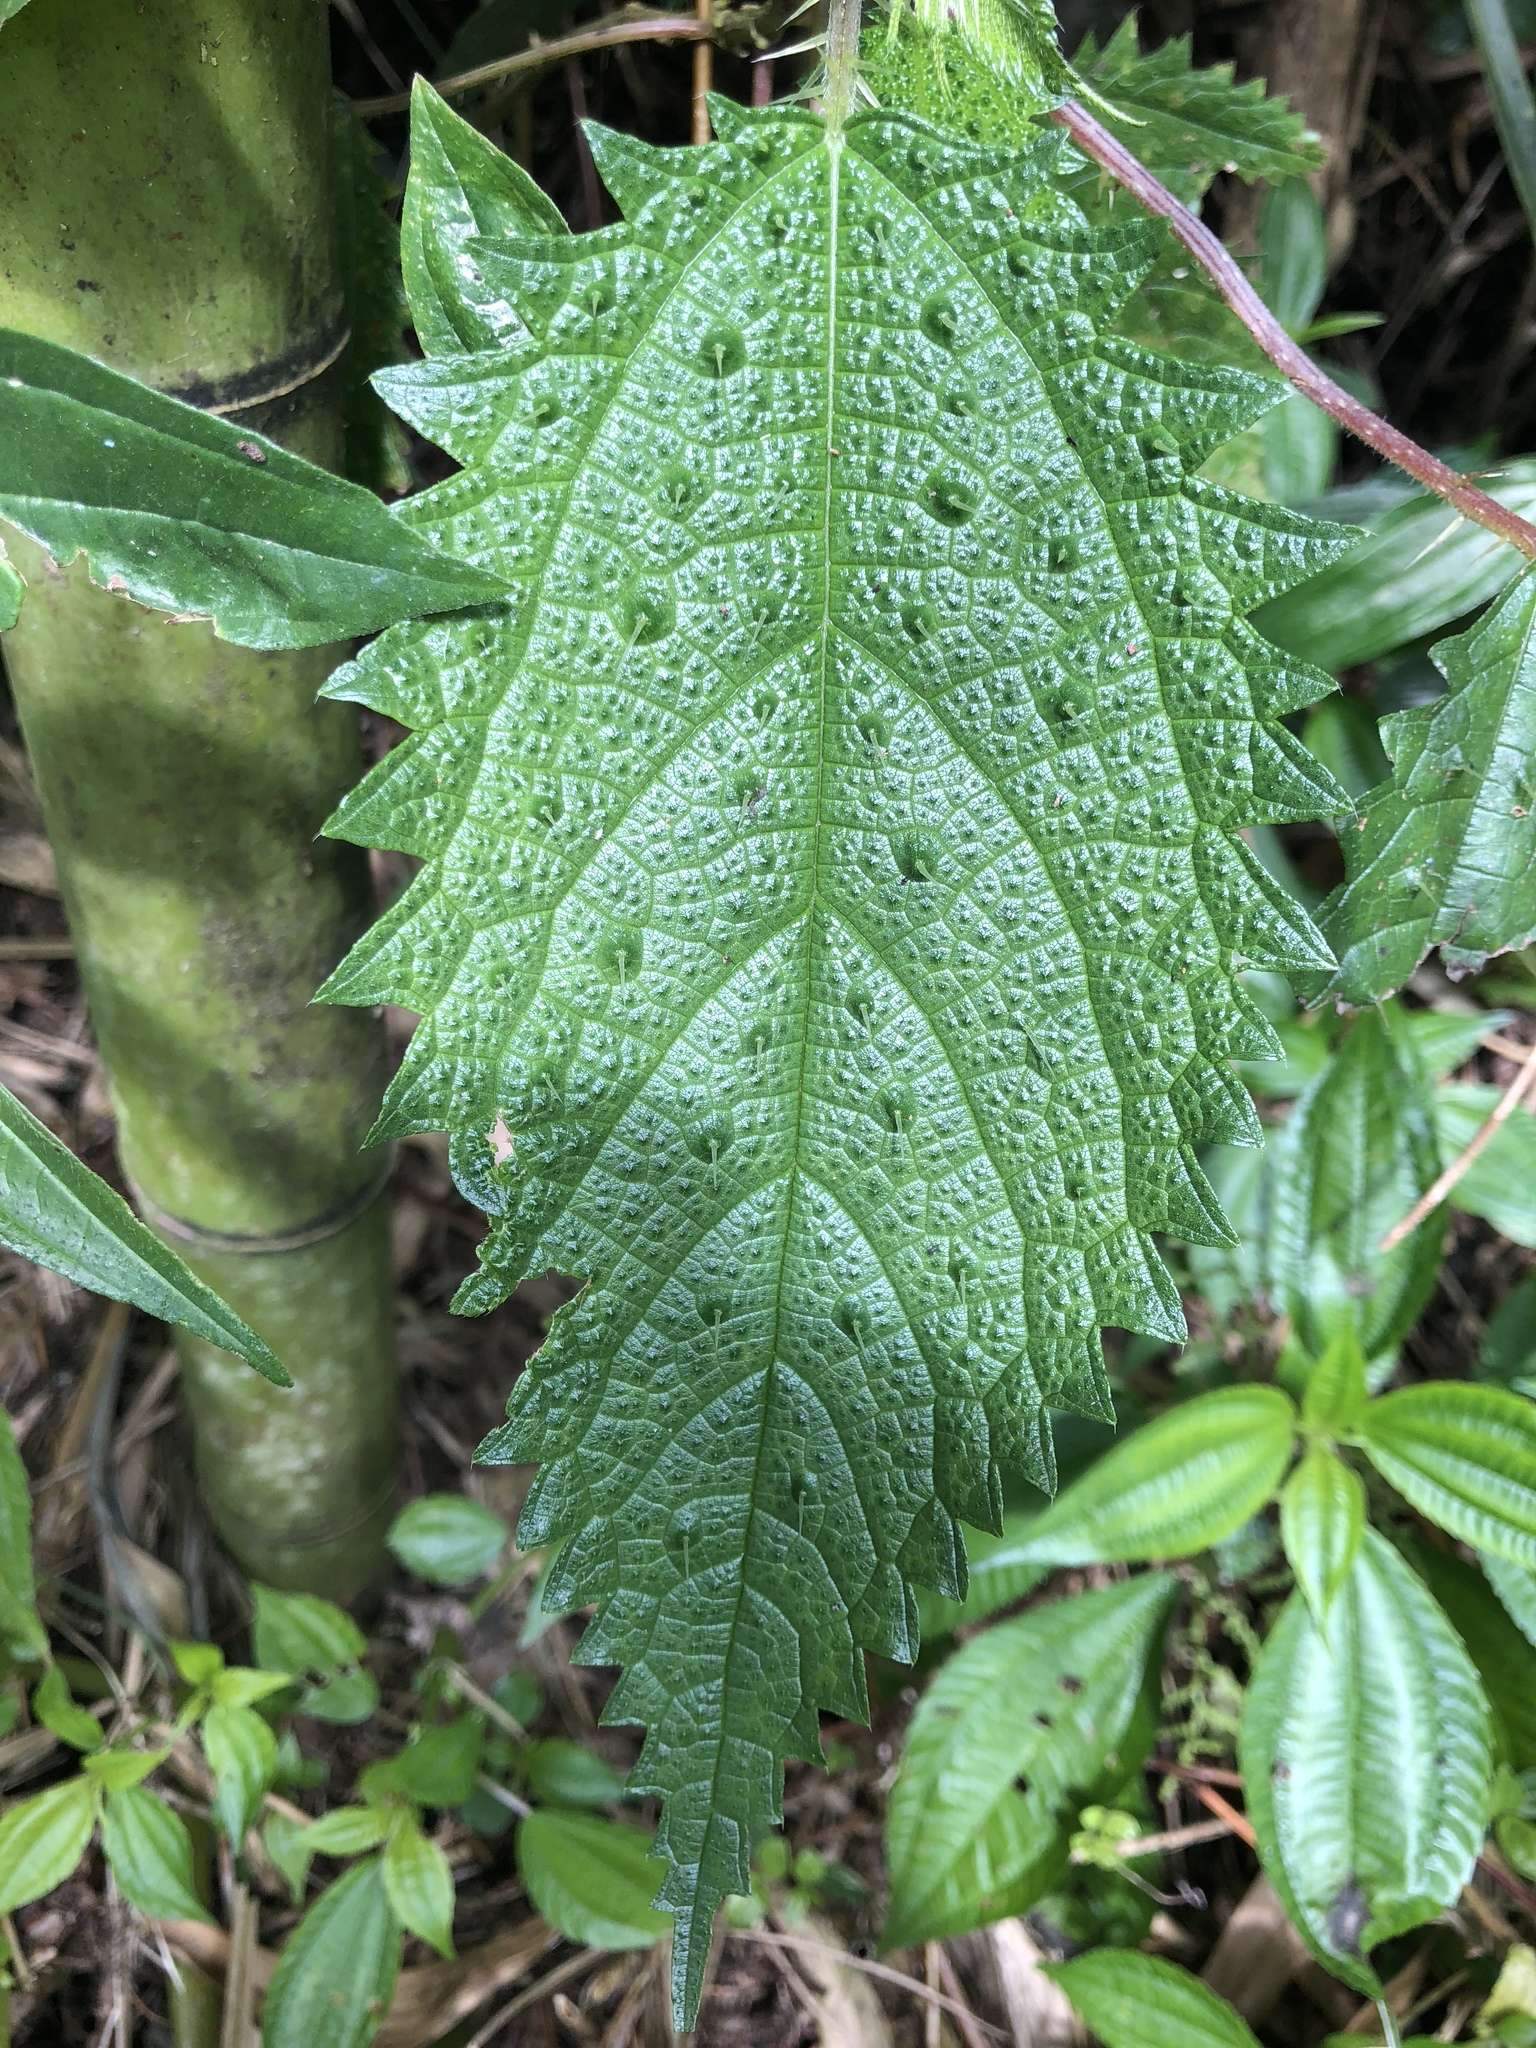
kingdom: Plantae
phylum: Tracheophyta
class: Magnoliopsida
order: Rosales
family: Urticaceae
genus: Girardinia
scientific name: Girardinia diversifolia
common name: Himalayan-nettle
